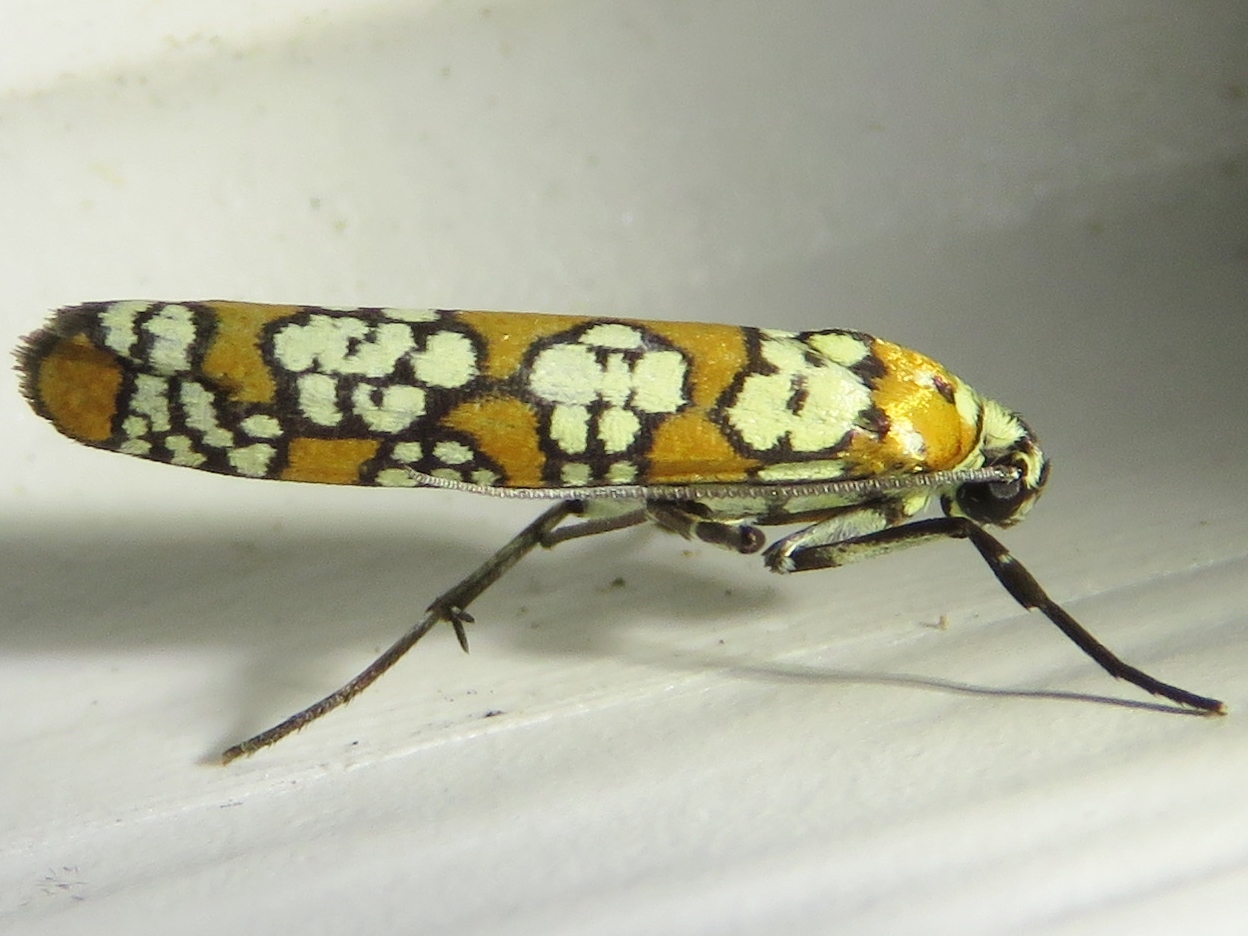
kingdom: Animalia
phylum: Arthropoda
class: Insecta
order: Lepidoptera
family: Attevidae
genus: Atteva
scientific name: Atteva punctella
